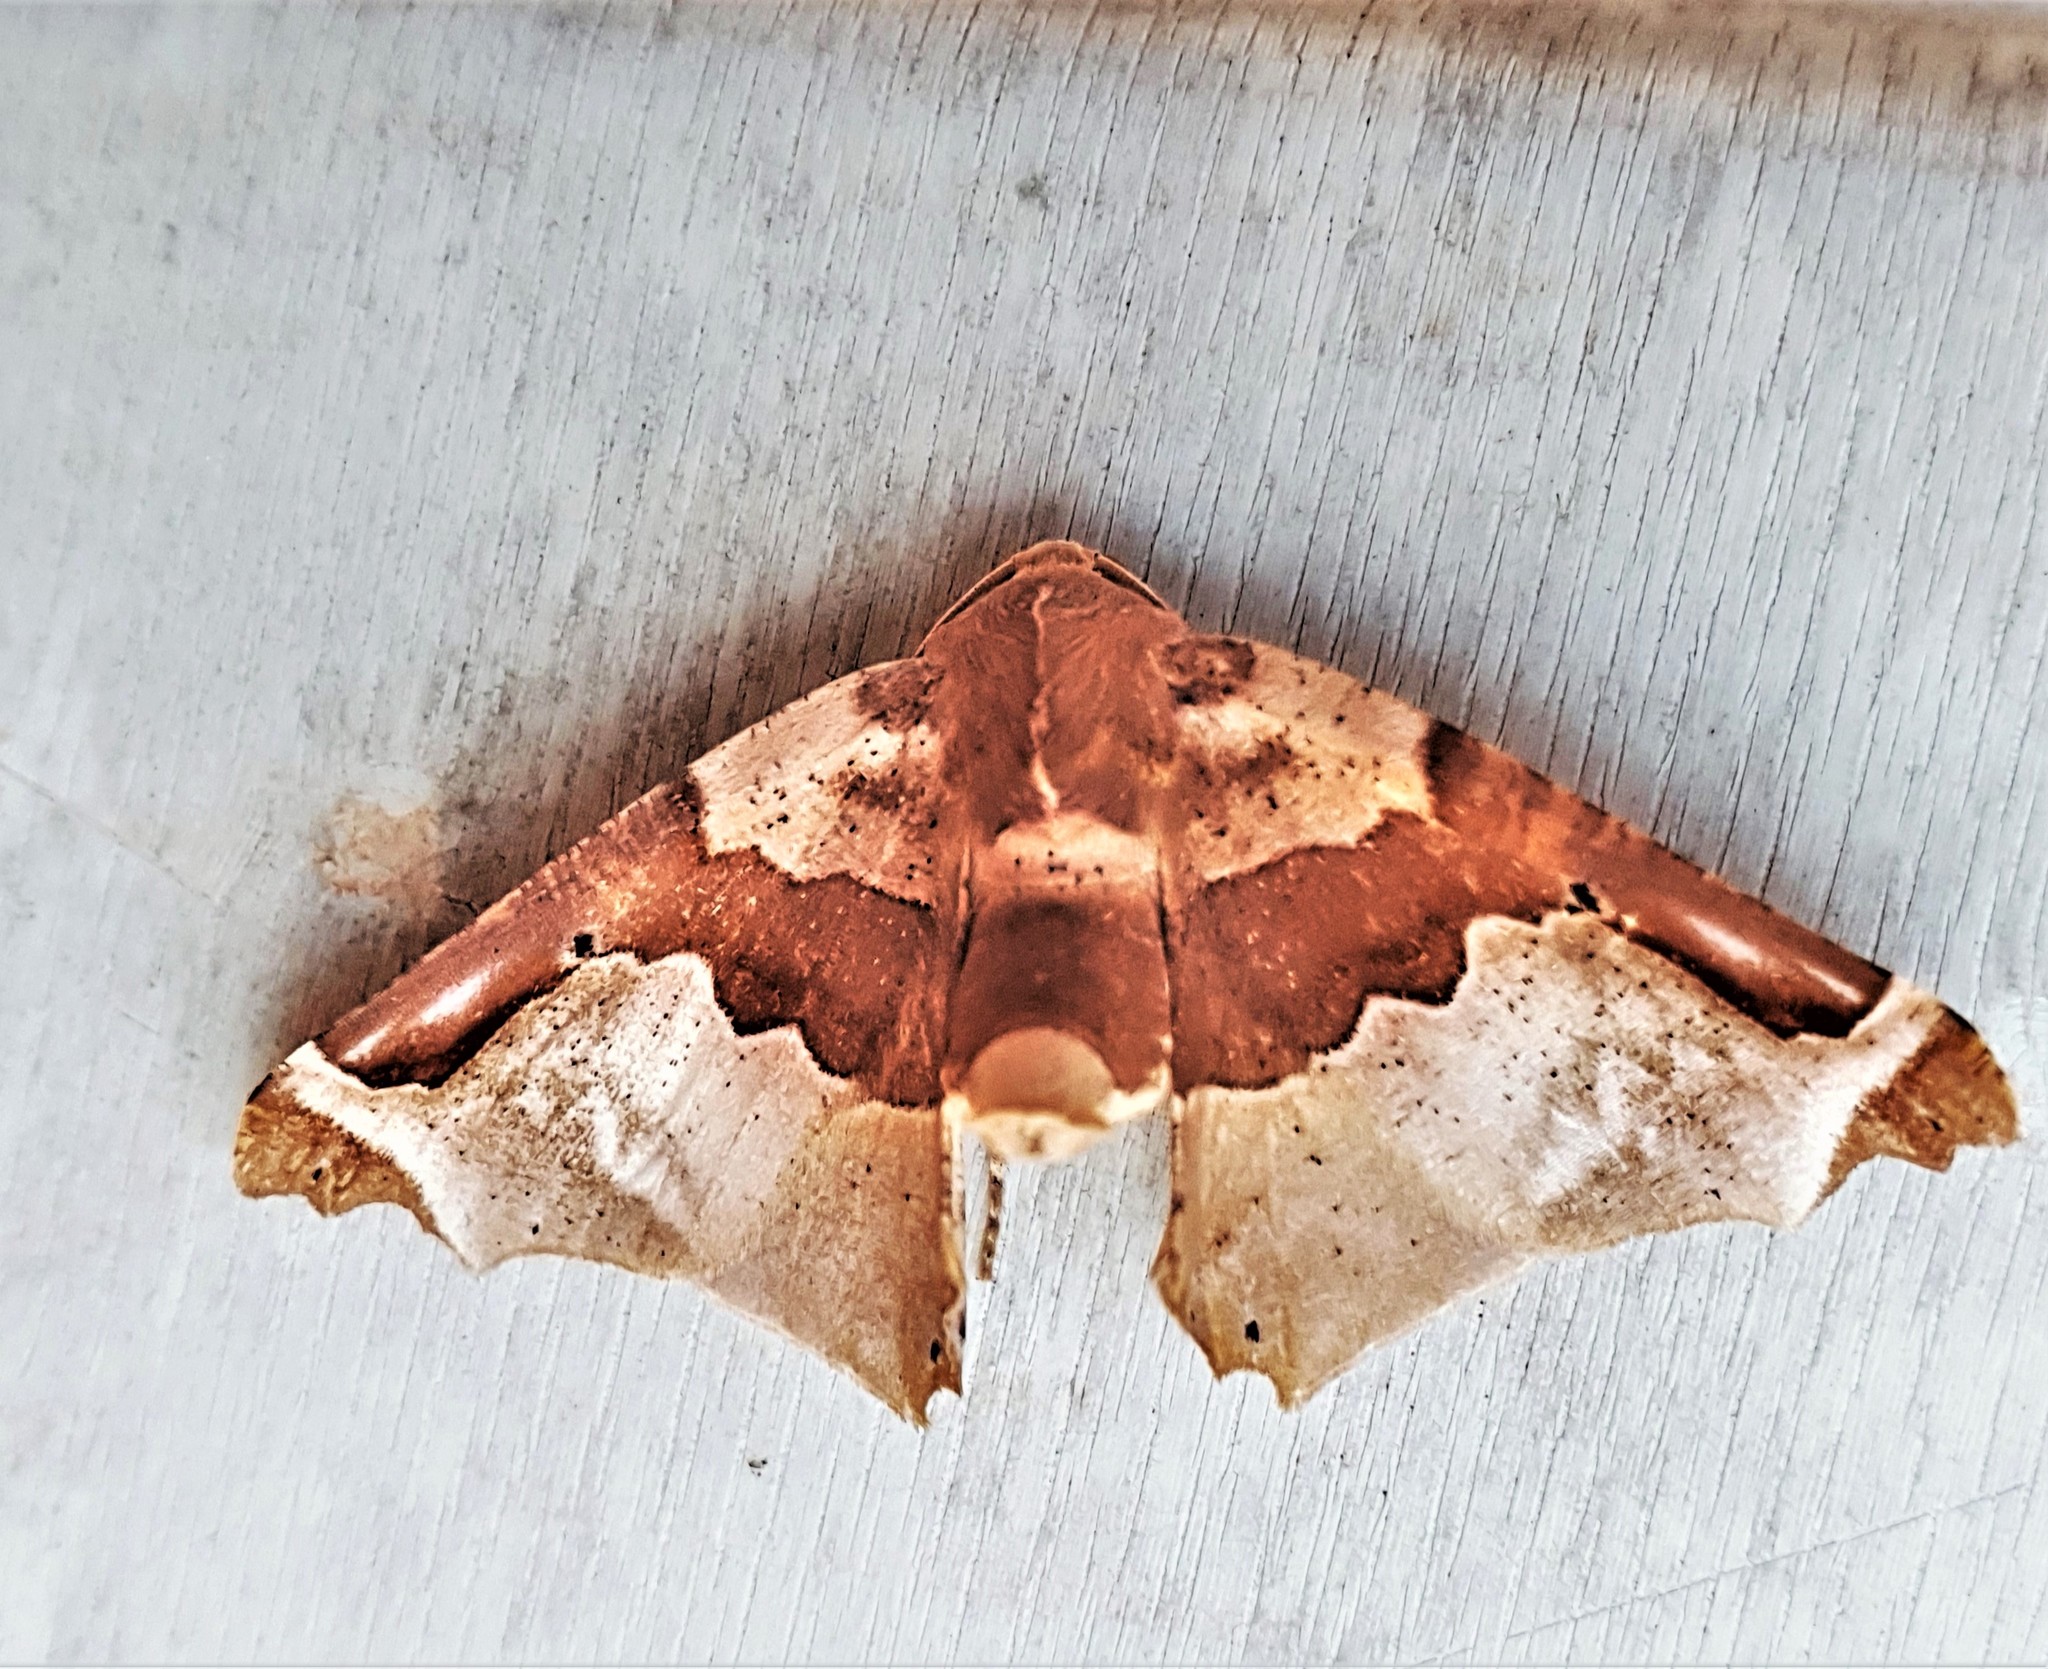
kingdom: Animalia
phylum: Arthropoda
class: Insecta
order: Lepidoptera
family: Geometridae
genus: Pero
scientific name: Pero constrictifascia
